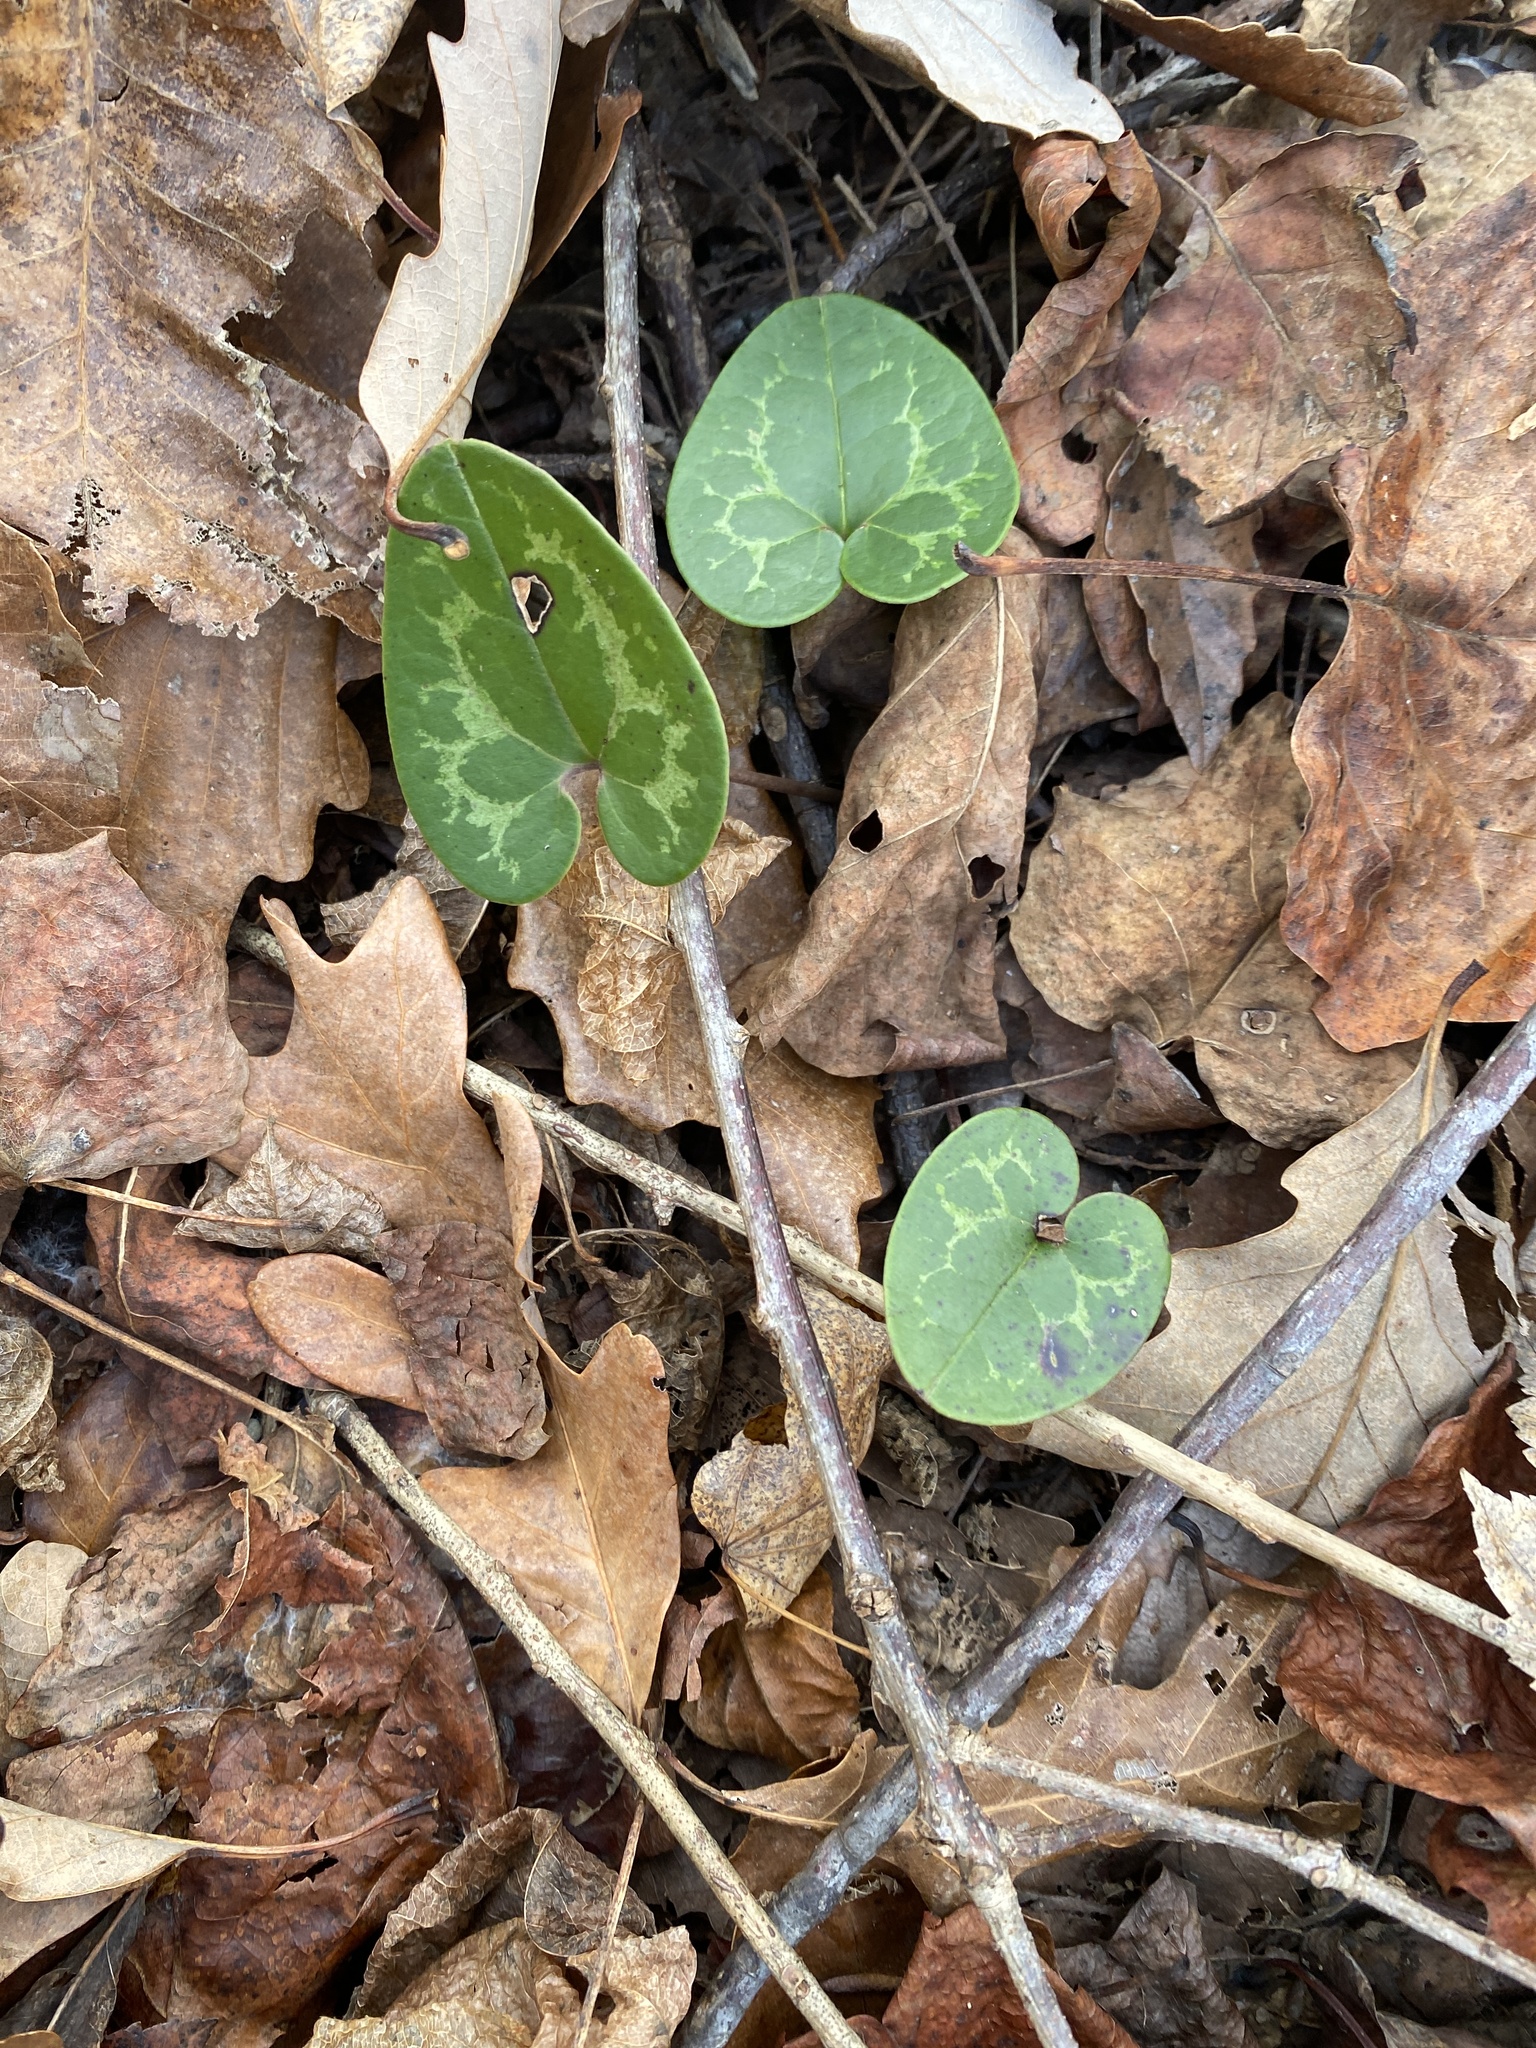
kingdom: Plantae
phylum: Tracheophyta
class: Magnoliopsida
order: Piperales
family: Aristolochiaceae
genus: Hexastylis
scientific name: Hexastylis lewisii
